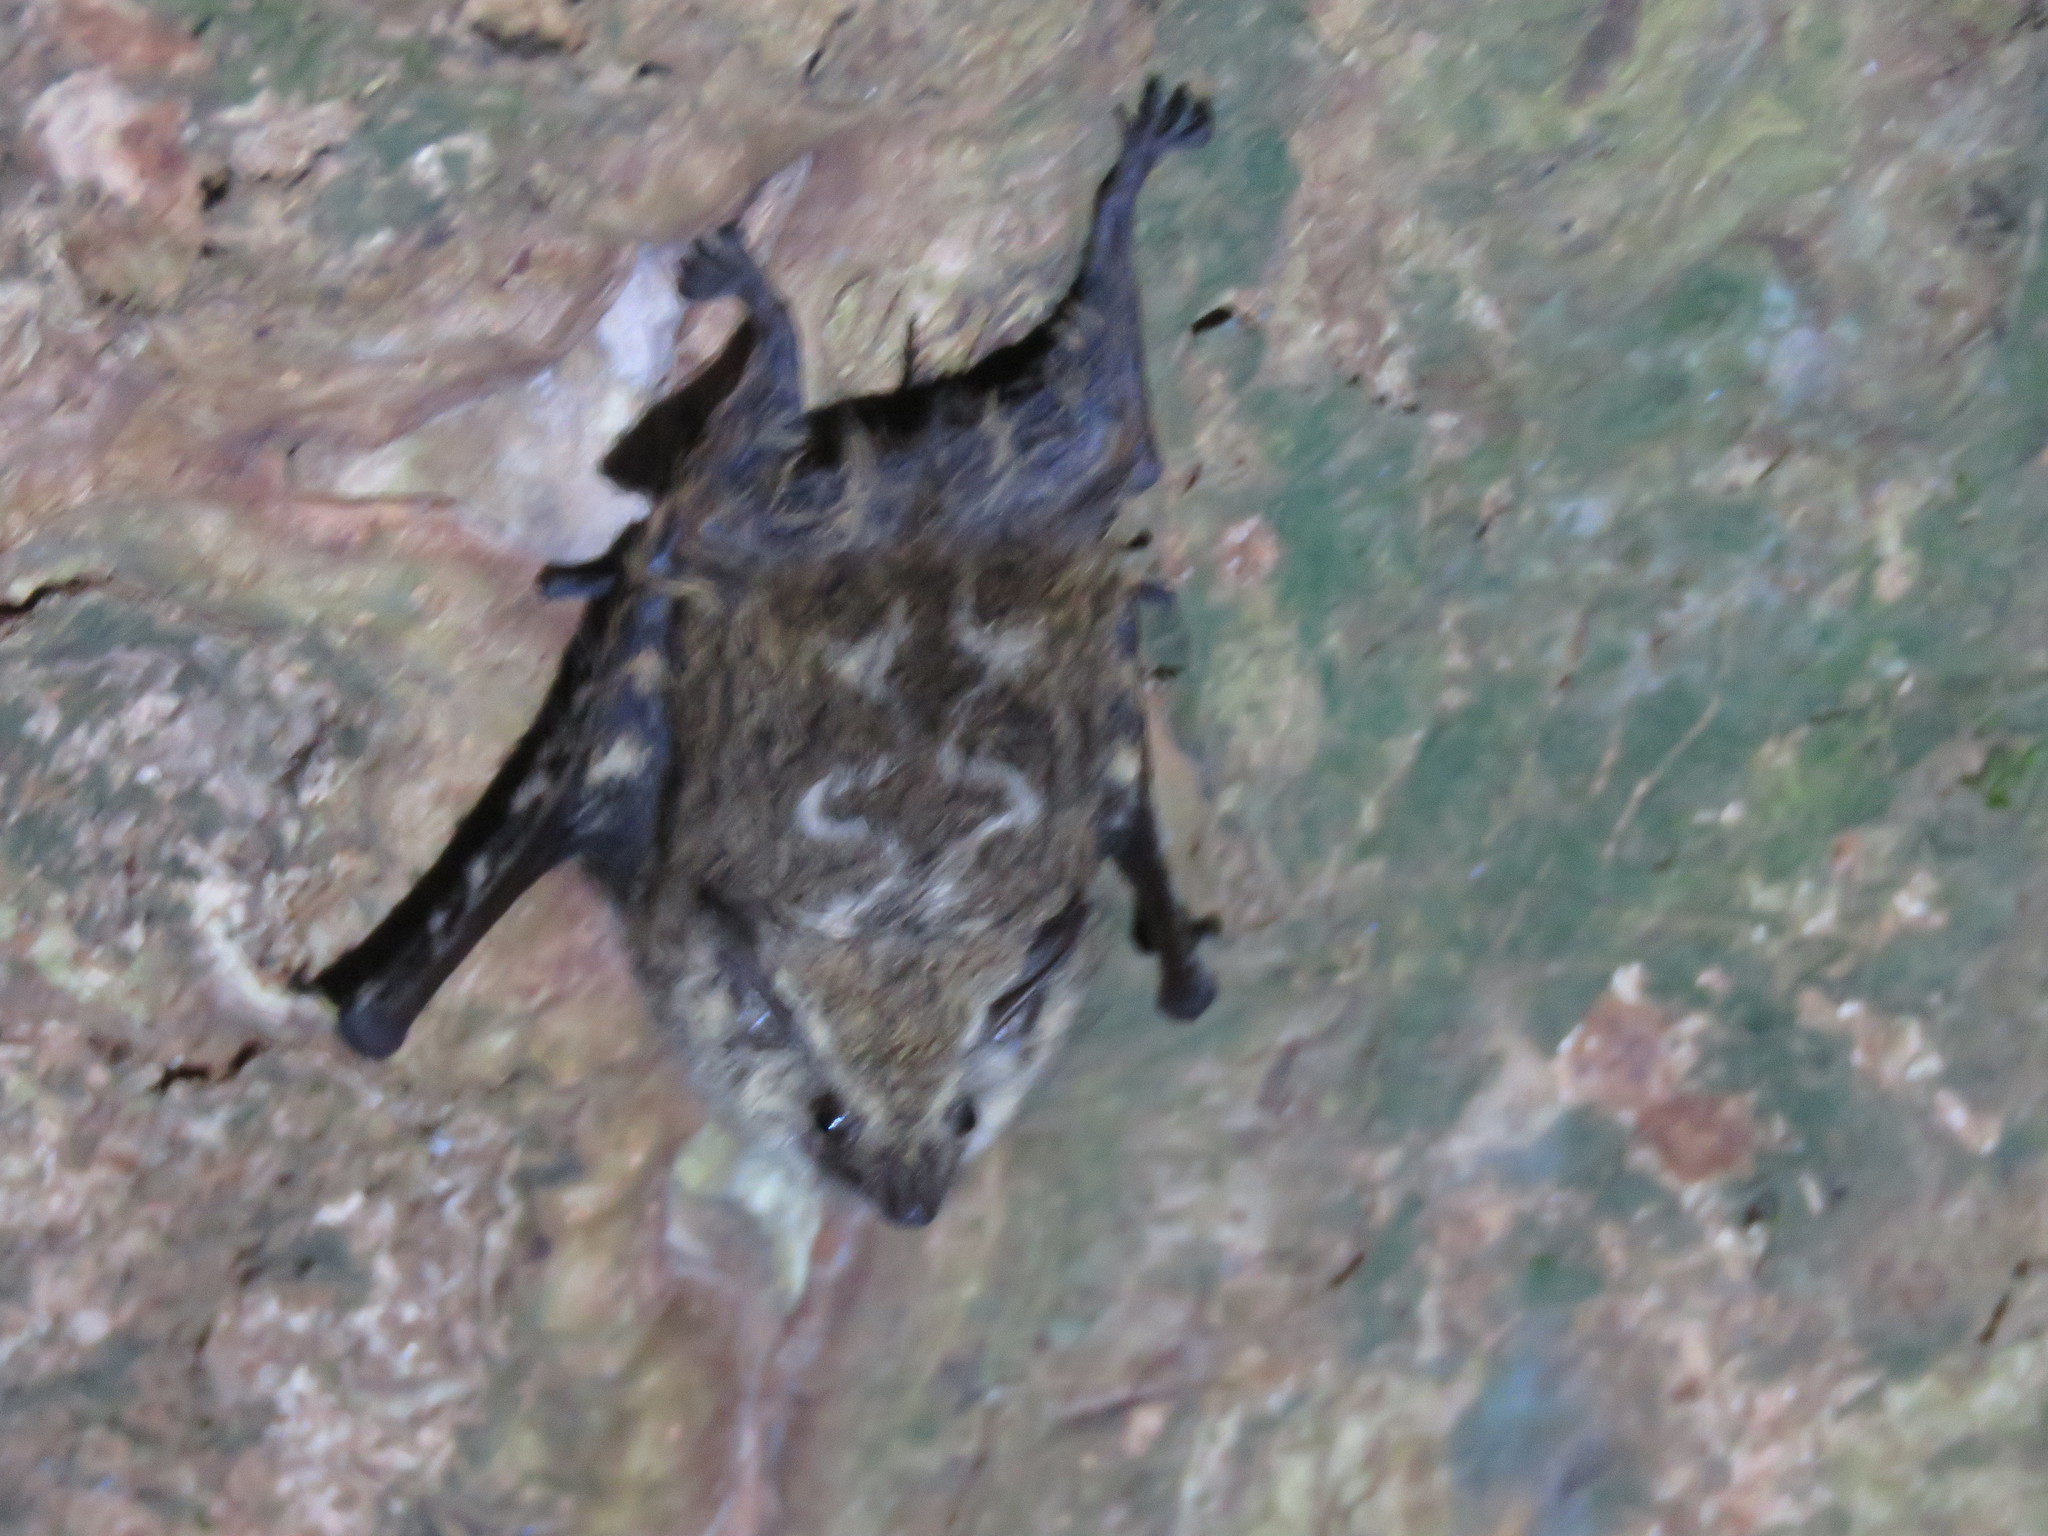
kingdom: Animalia
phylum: Chordata
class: Mammalia
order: Chiroptera
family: Emballonuridae
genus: Rhynchonycteris
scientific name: Rhynchonycteris naso
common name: Proboscis bat
